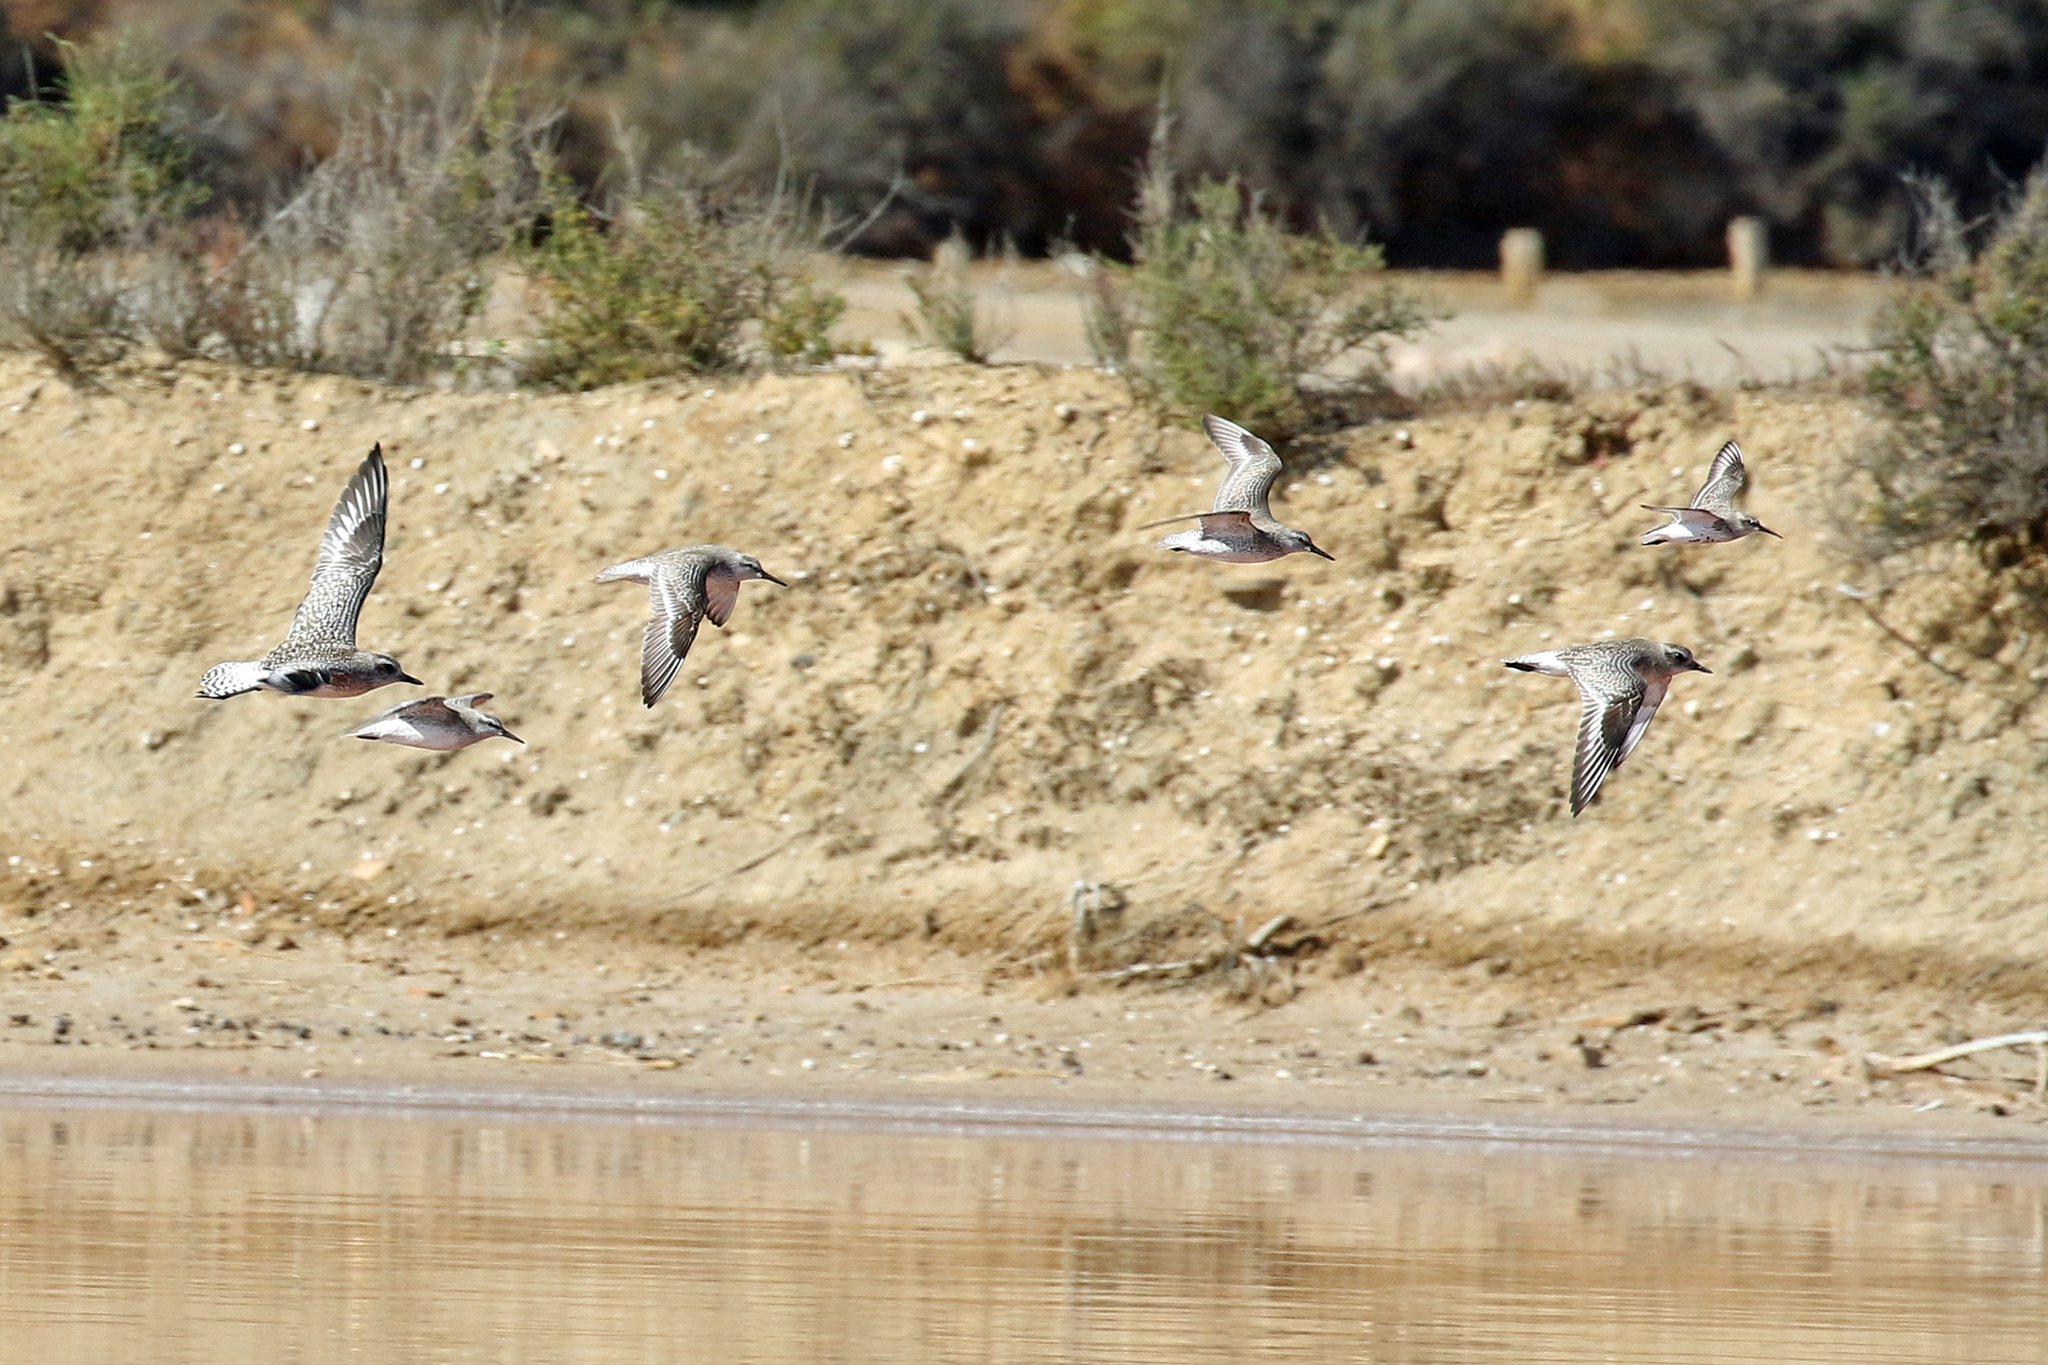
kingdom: Animalia
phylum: Chordata
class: Aves
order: Charadriiformes
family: Scolopacidae
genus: Calidris
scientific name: Calidris canutus
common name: Red knot
